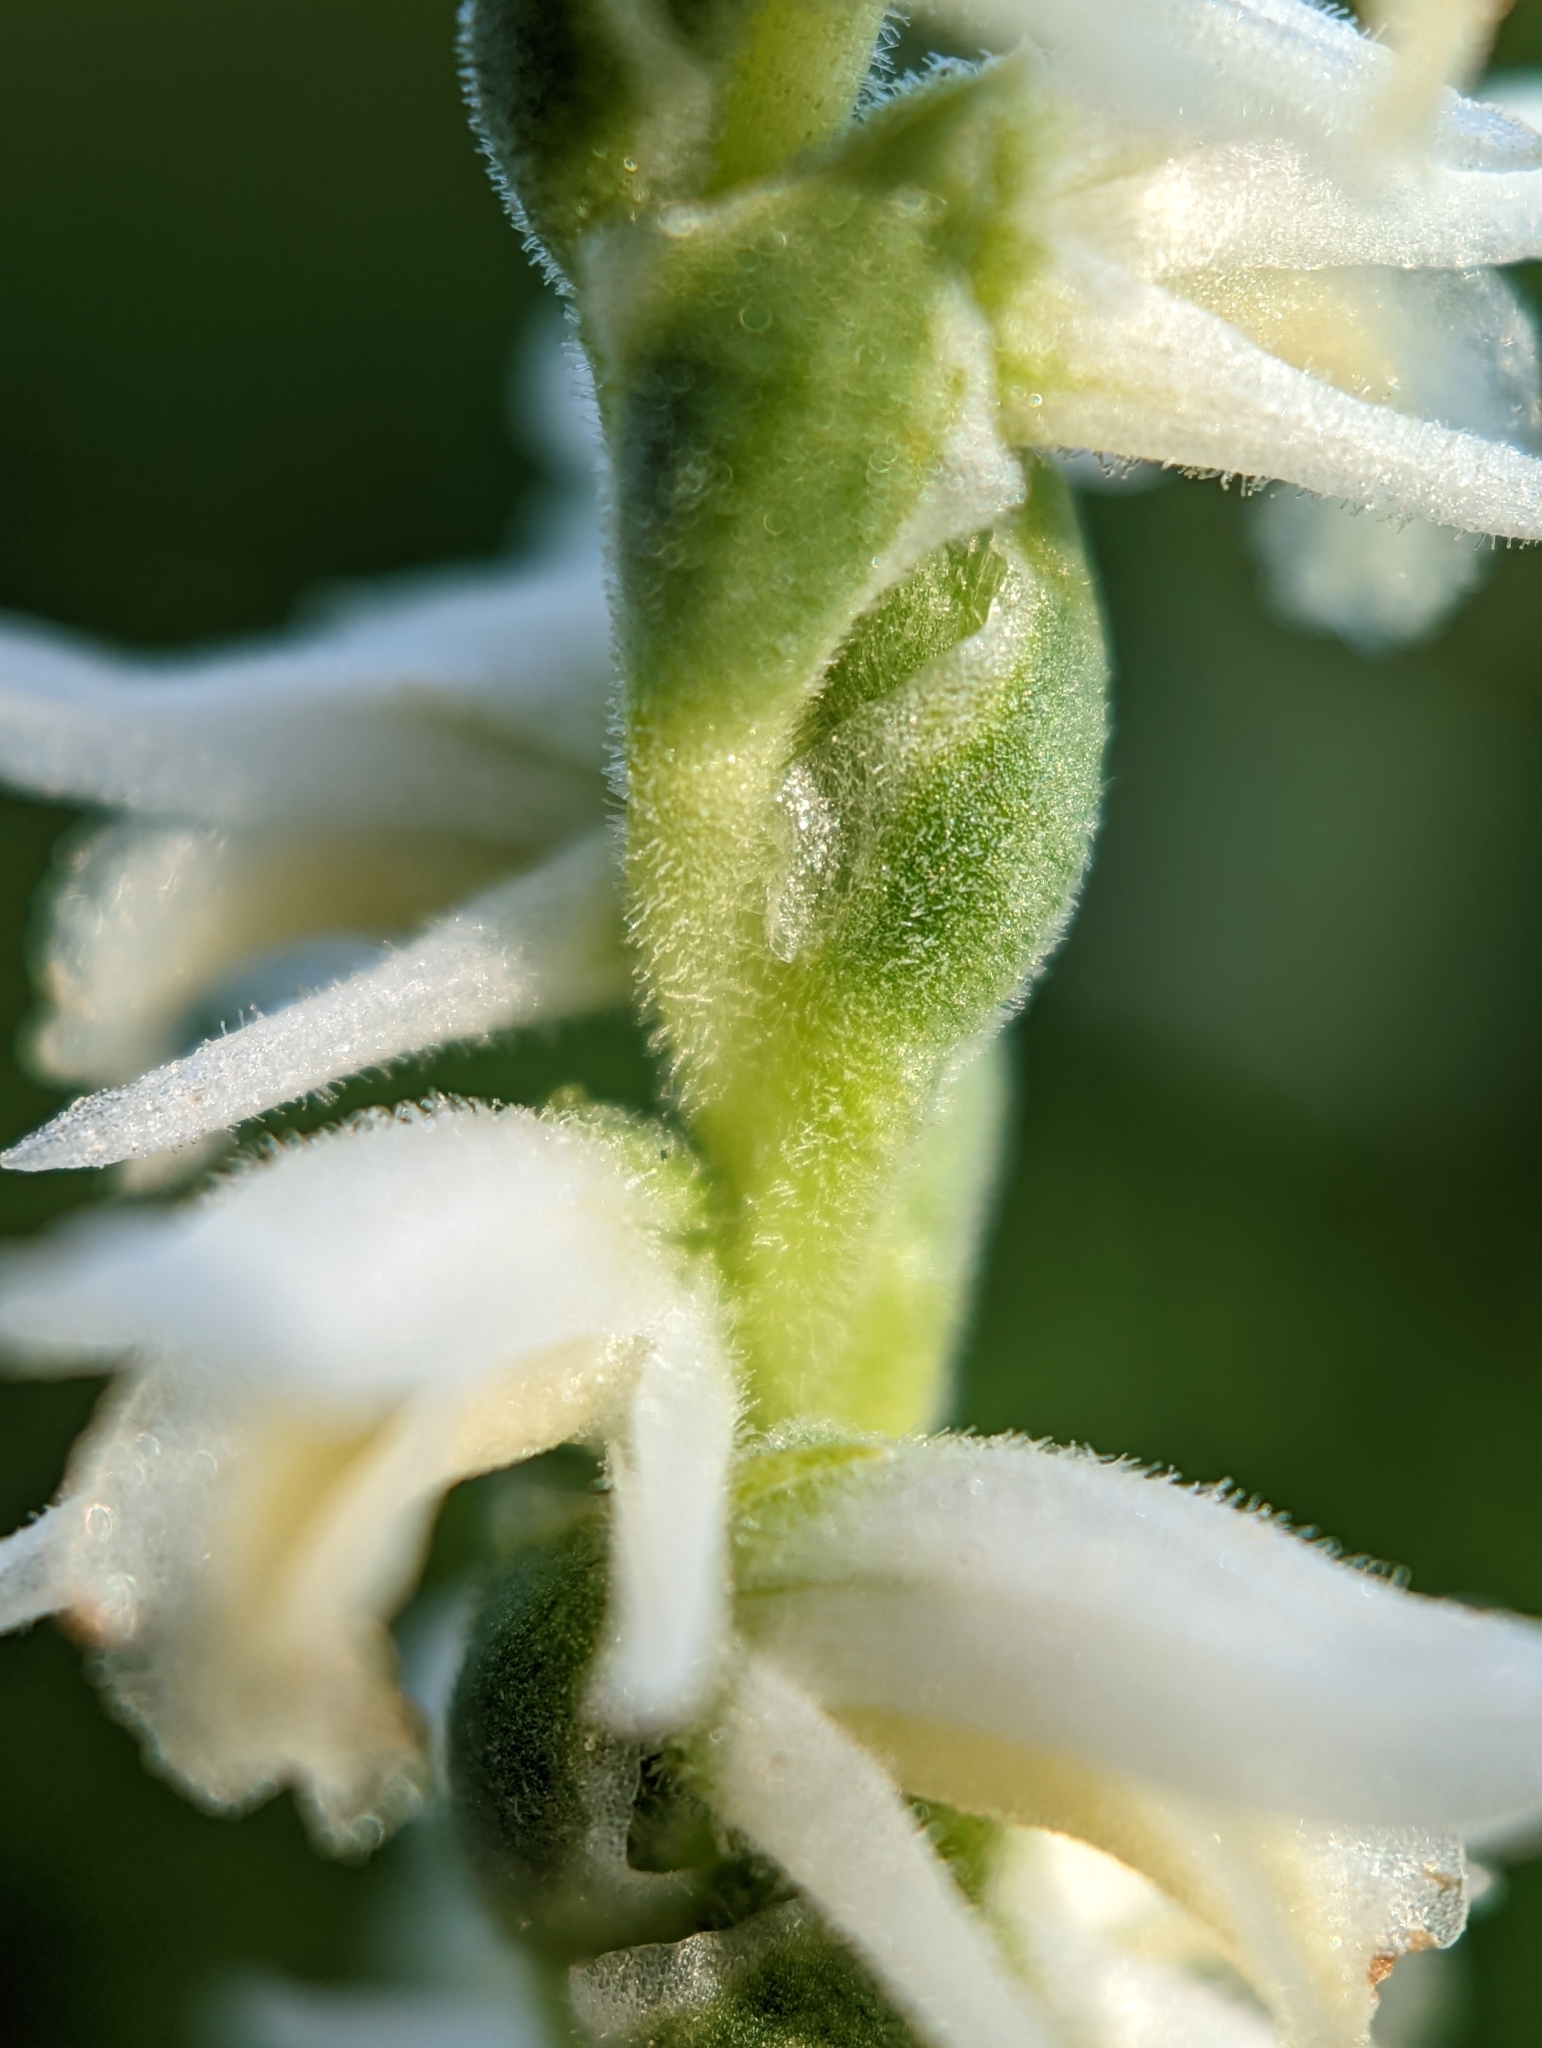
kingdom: Plantae
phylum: Tracheophyta
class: Liliopsida
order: Asparagales
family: Orchidaceae
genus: Spiranthes
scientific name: Spiranthes vernalis
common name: Spring ladies'-tresses
